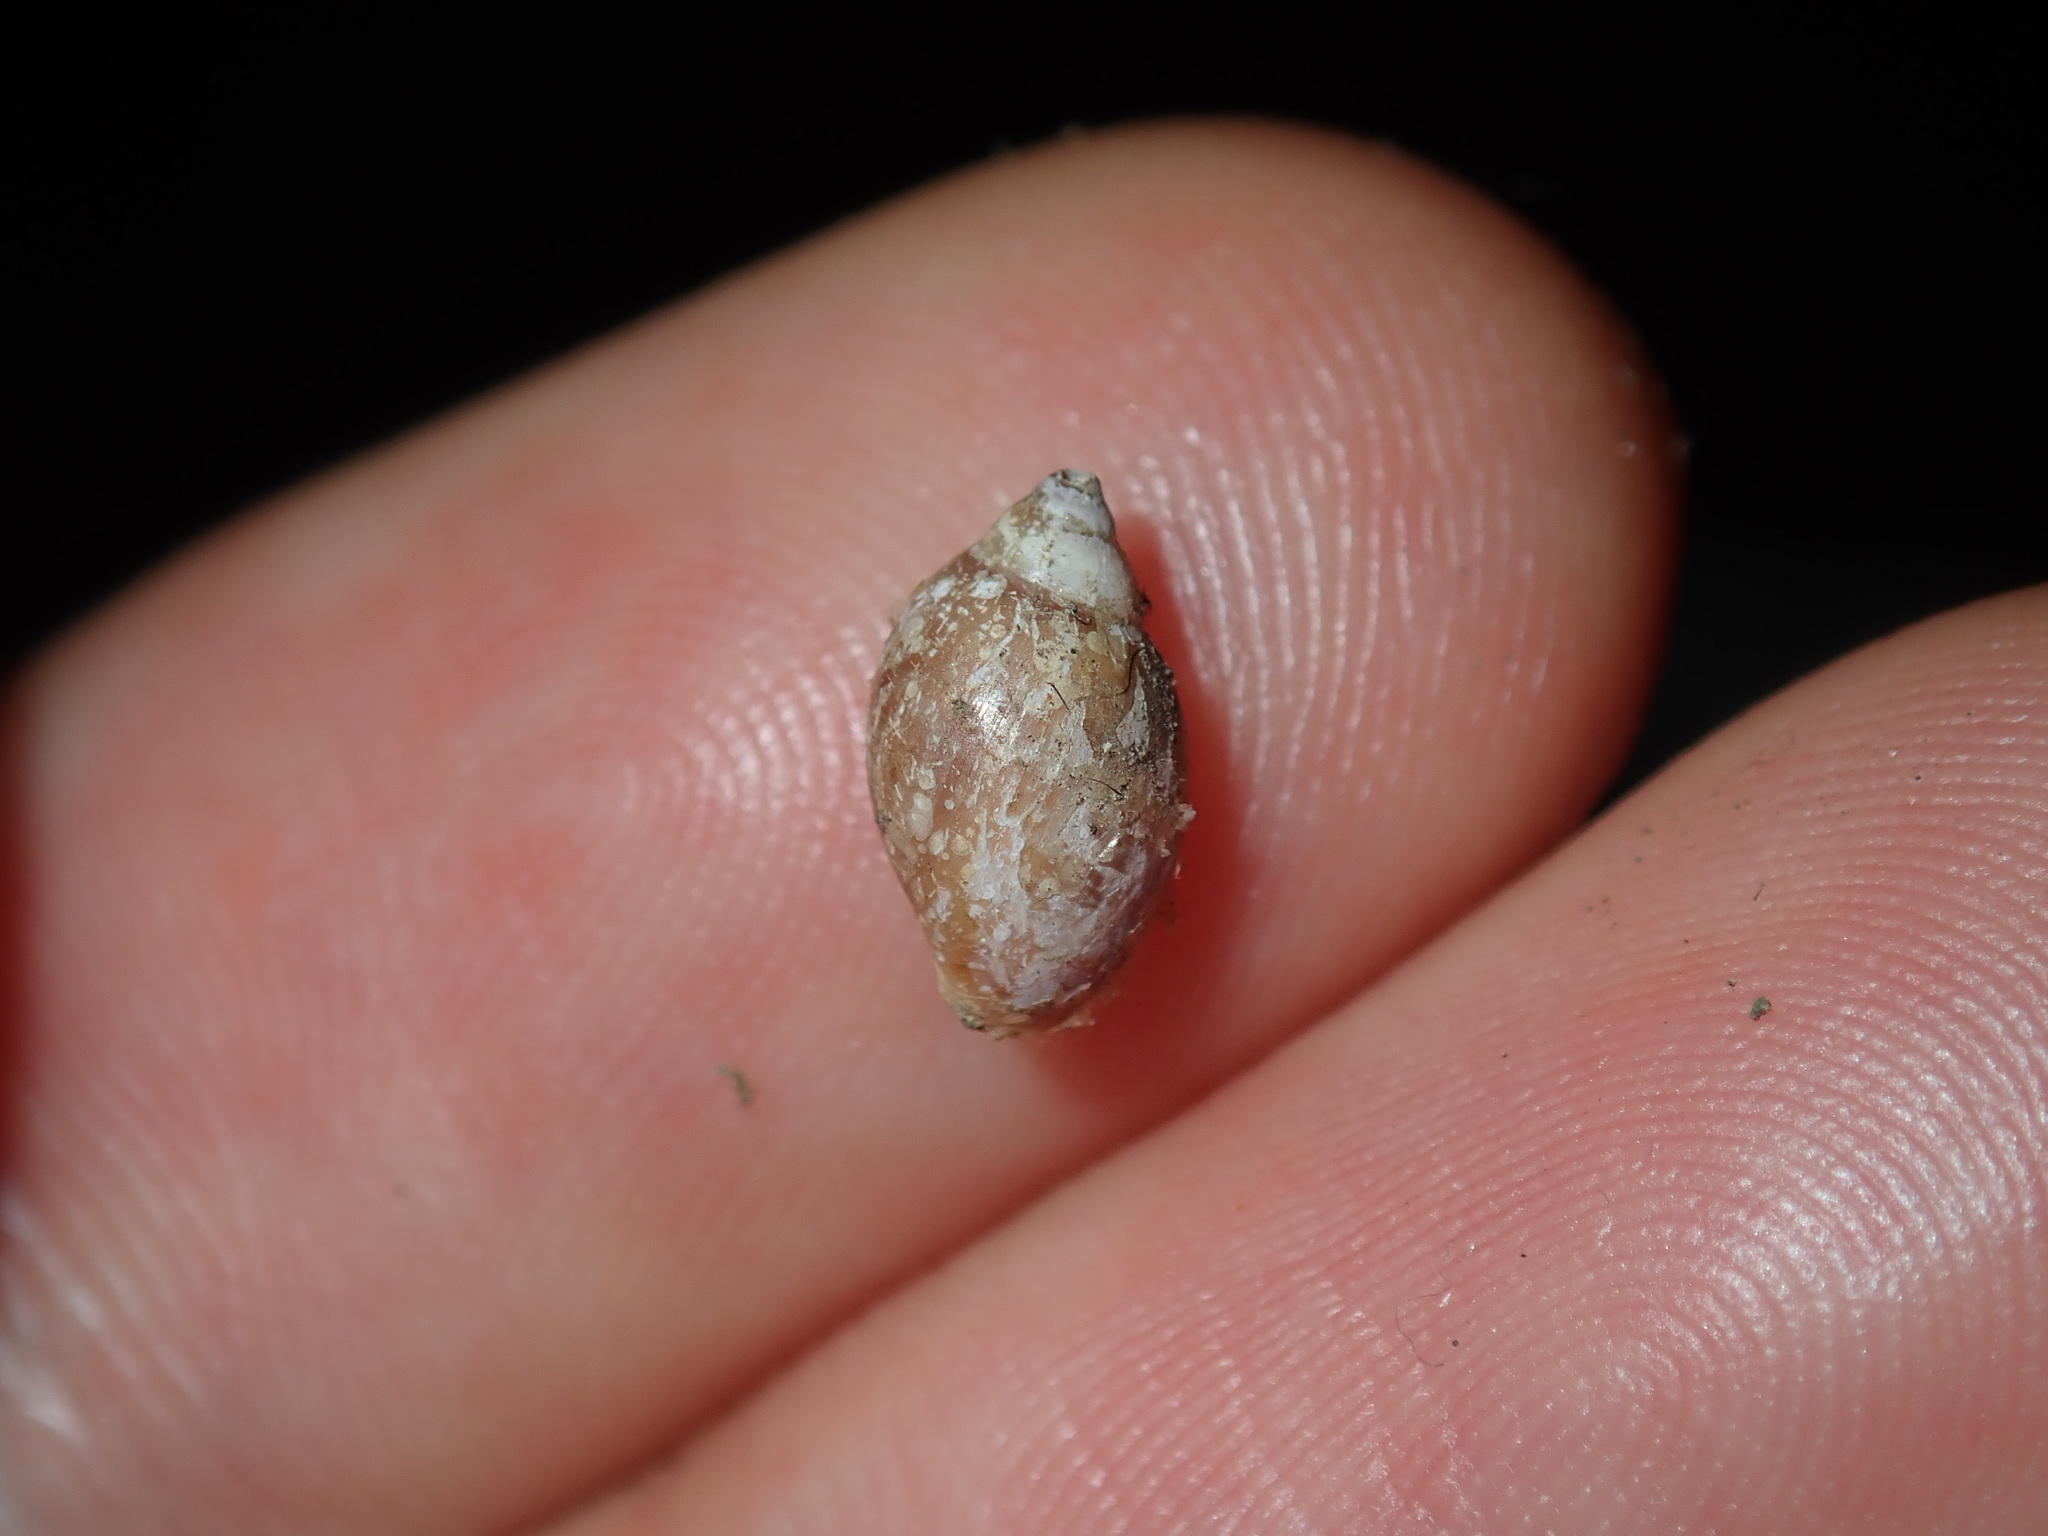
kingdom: Animalia
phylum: Mollusca
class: Gastropoda
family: Physidae
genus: Physella
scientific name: Physella acuta
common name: European physa
